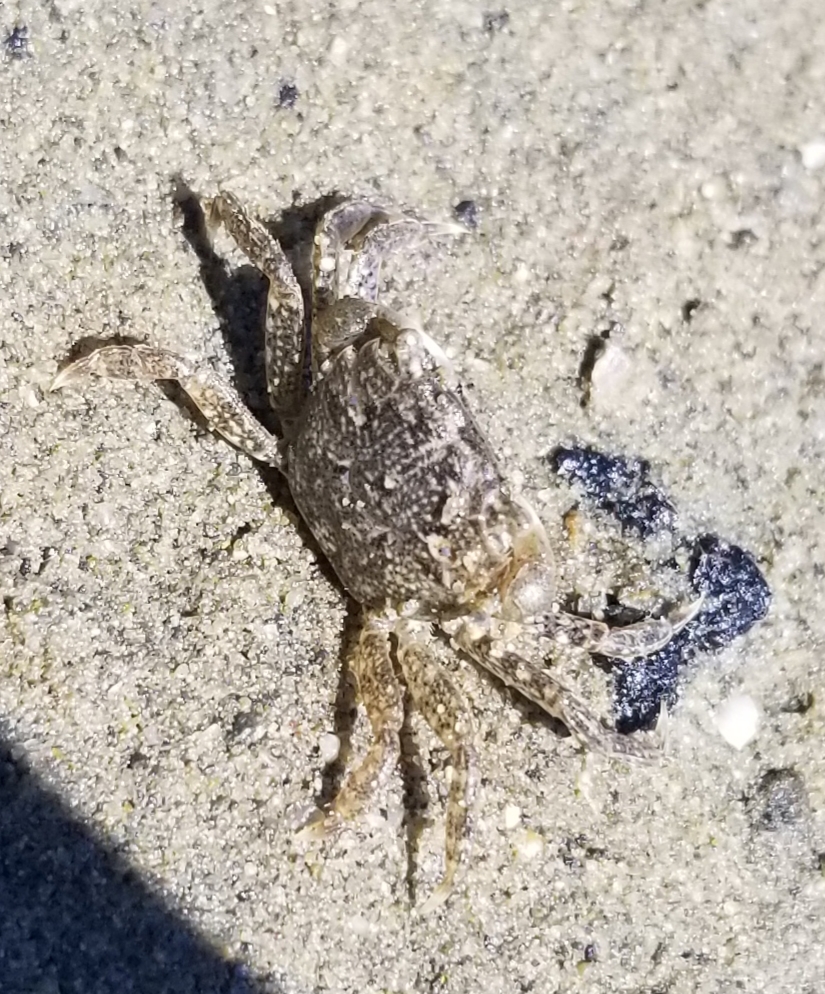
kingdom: Animalia
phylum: Arthropoda
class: Malacostraca
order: Decapoda
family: Varunidae
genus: Hemigrapsus
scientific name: Hemigrapsus oregonensis
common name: Yellow shore crab
